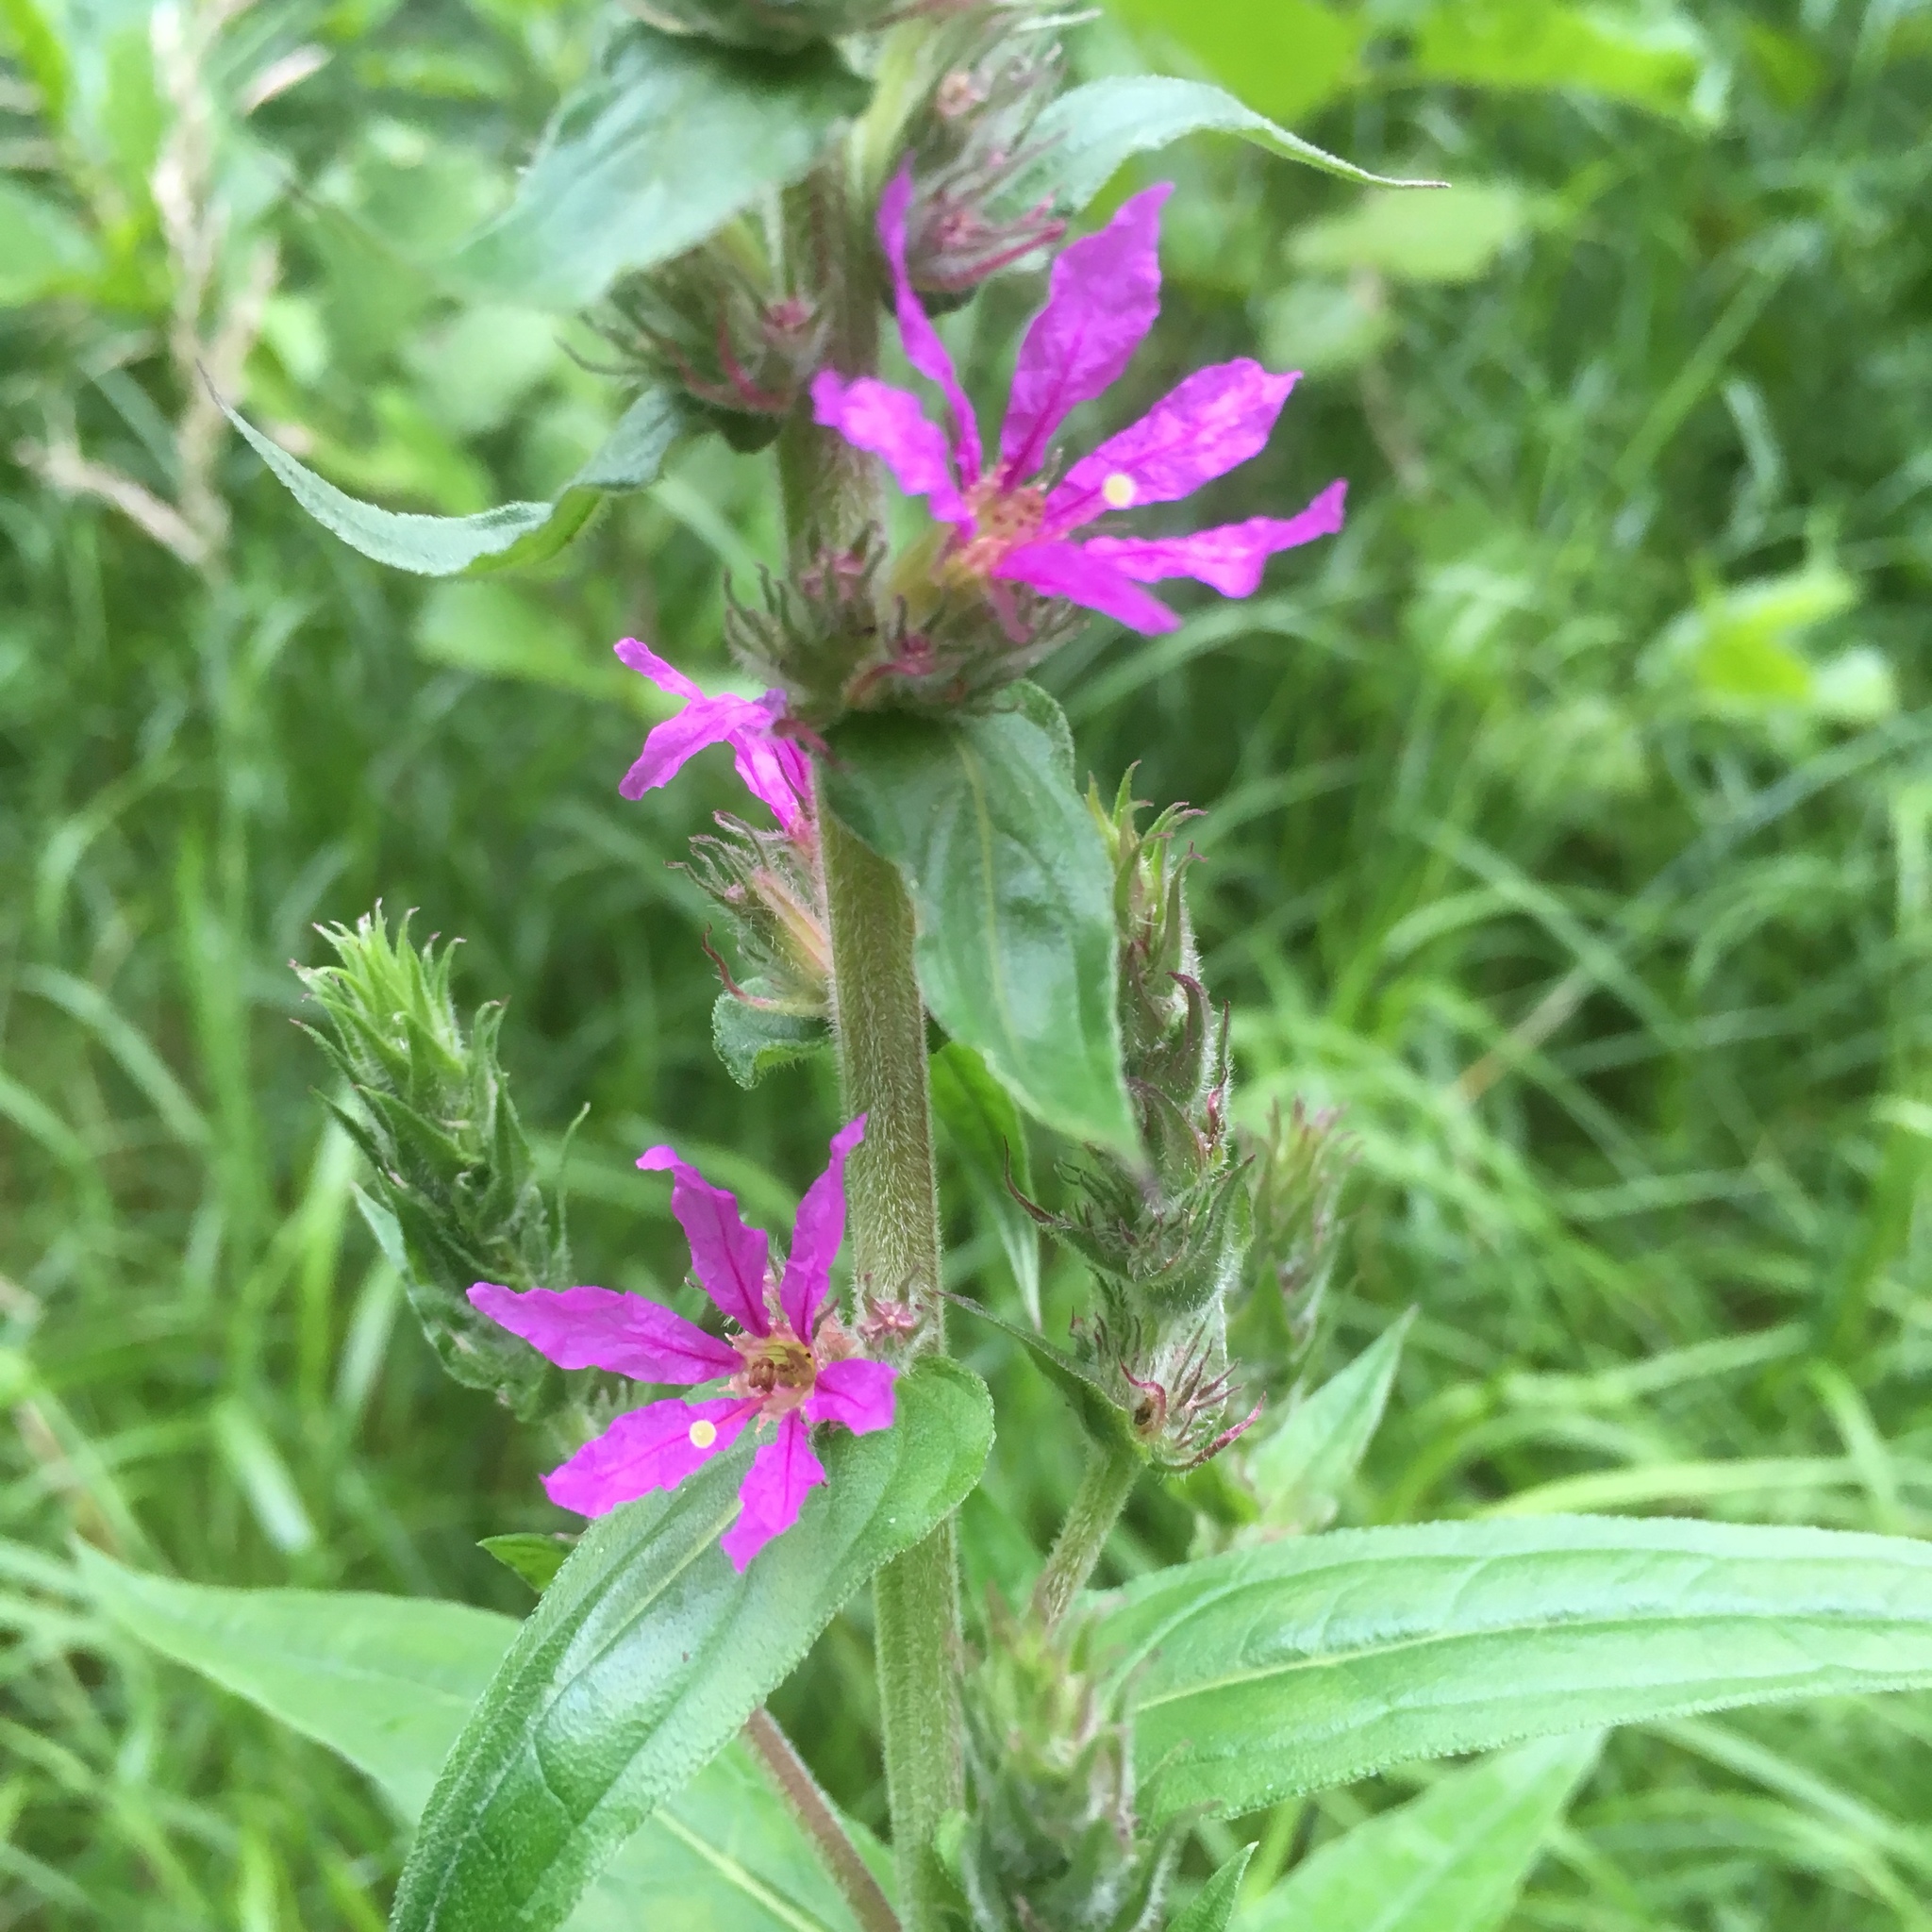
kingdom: Plantae
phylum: Tracheophyta
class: Magnoliopsida
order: Myrtales
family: Lythraceae
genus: Lythrum
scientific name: Lythrum salicaria
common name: Purple loosestrife
